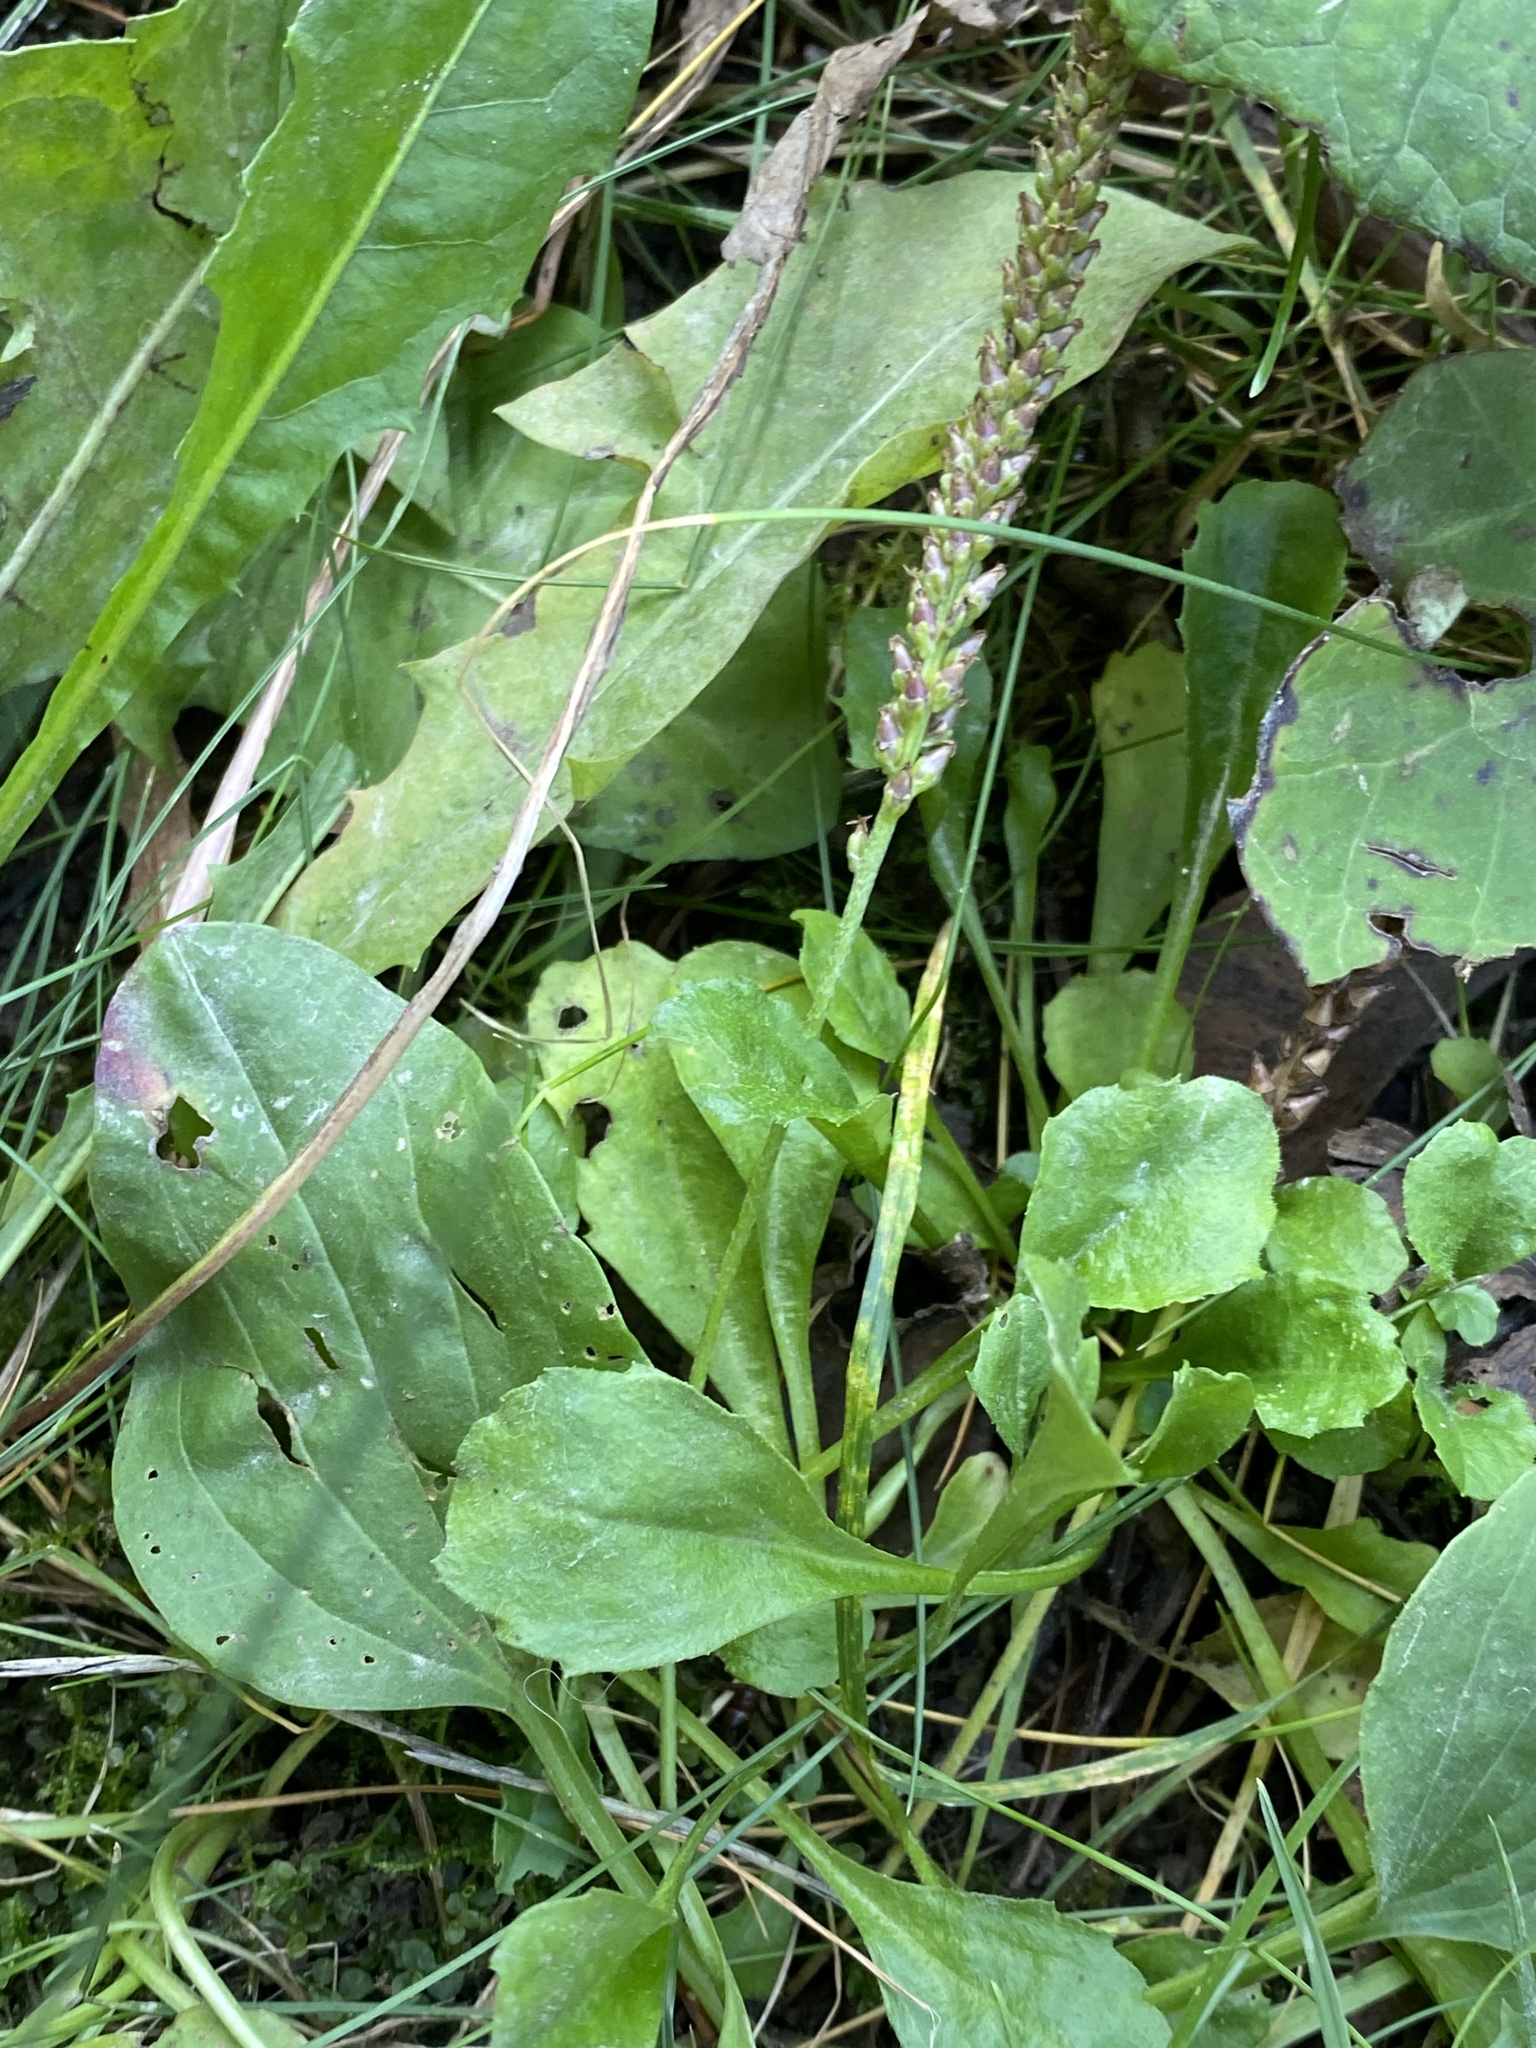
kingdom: Plantae
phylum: Tracheophyta
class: Magnoliopsida
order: Lamiales
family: Plantaginaceae
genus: Plantago
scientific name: Plantago major
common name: Common plantain
